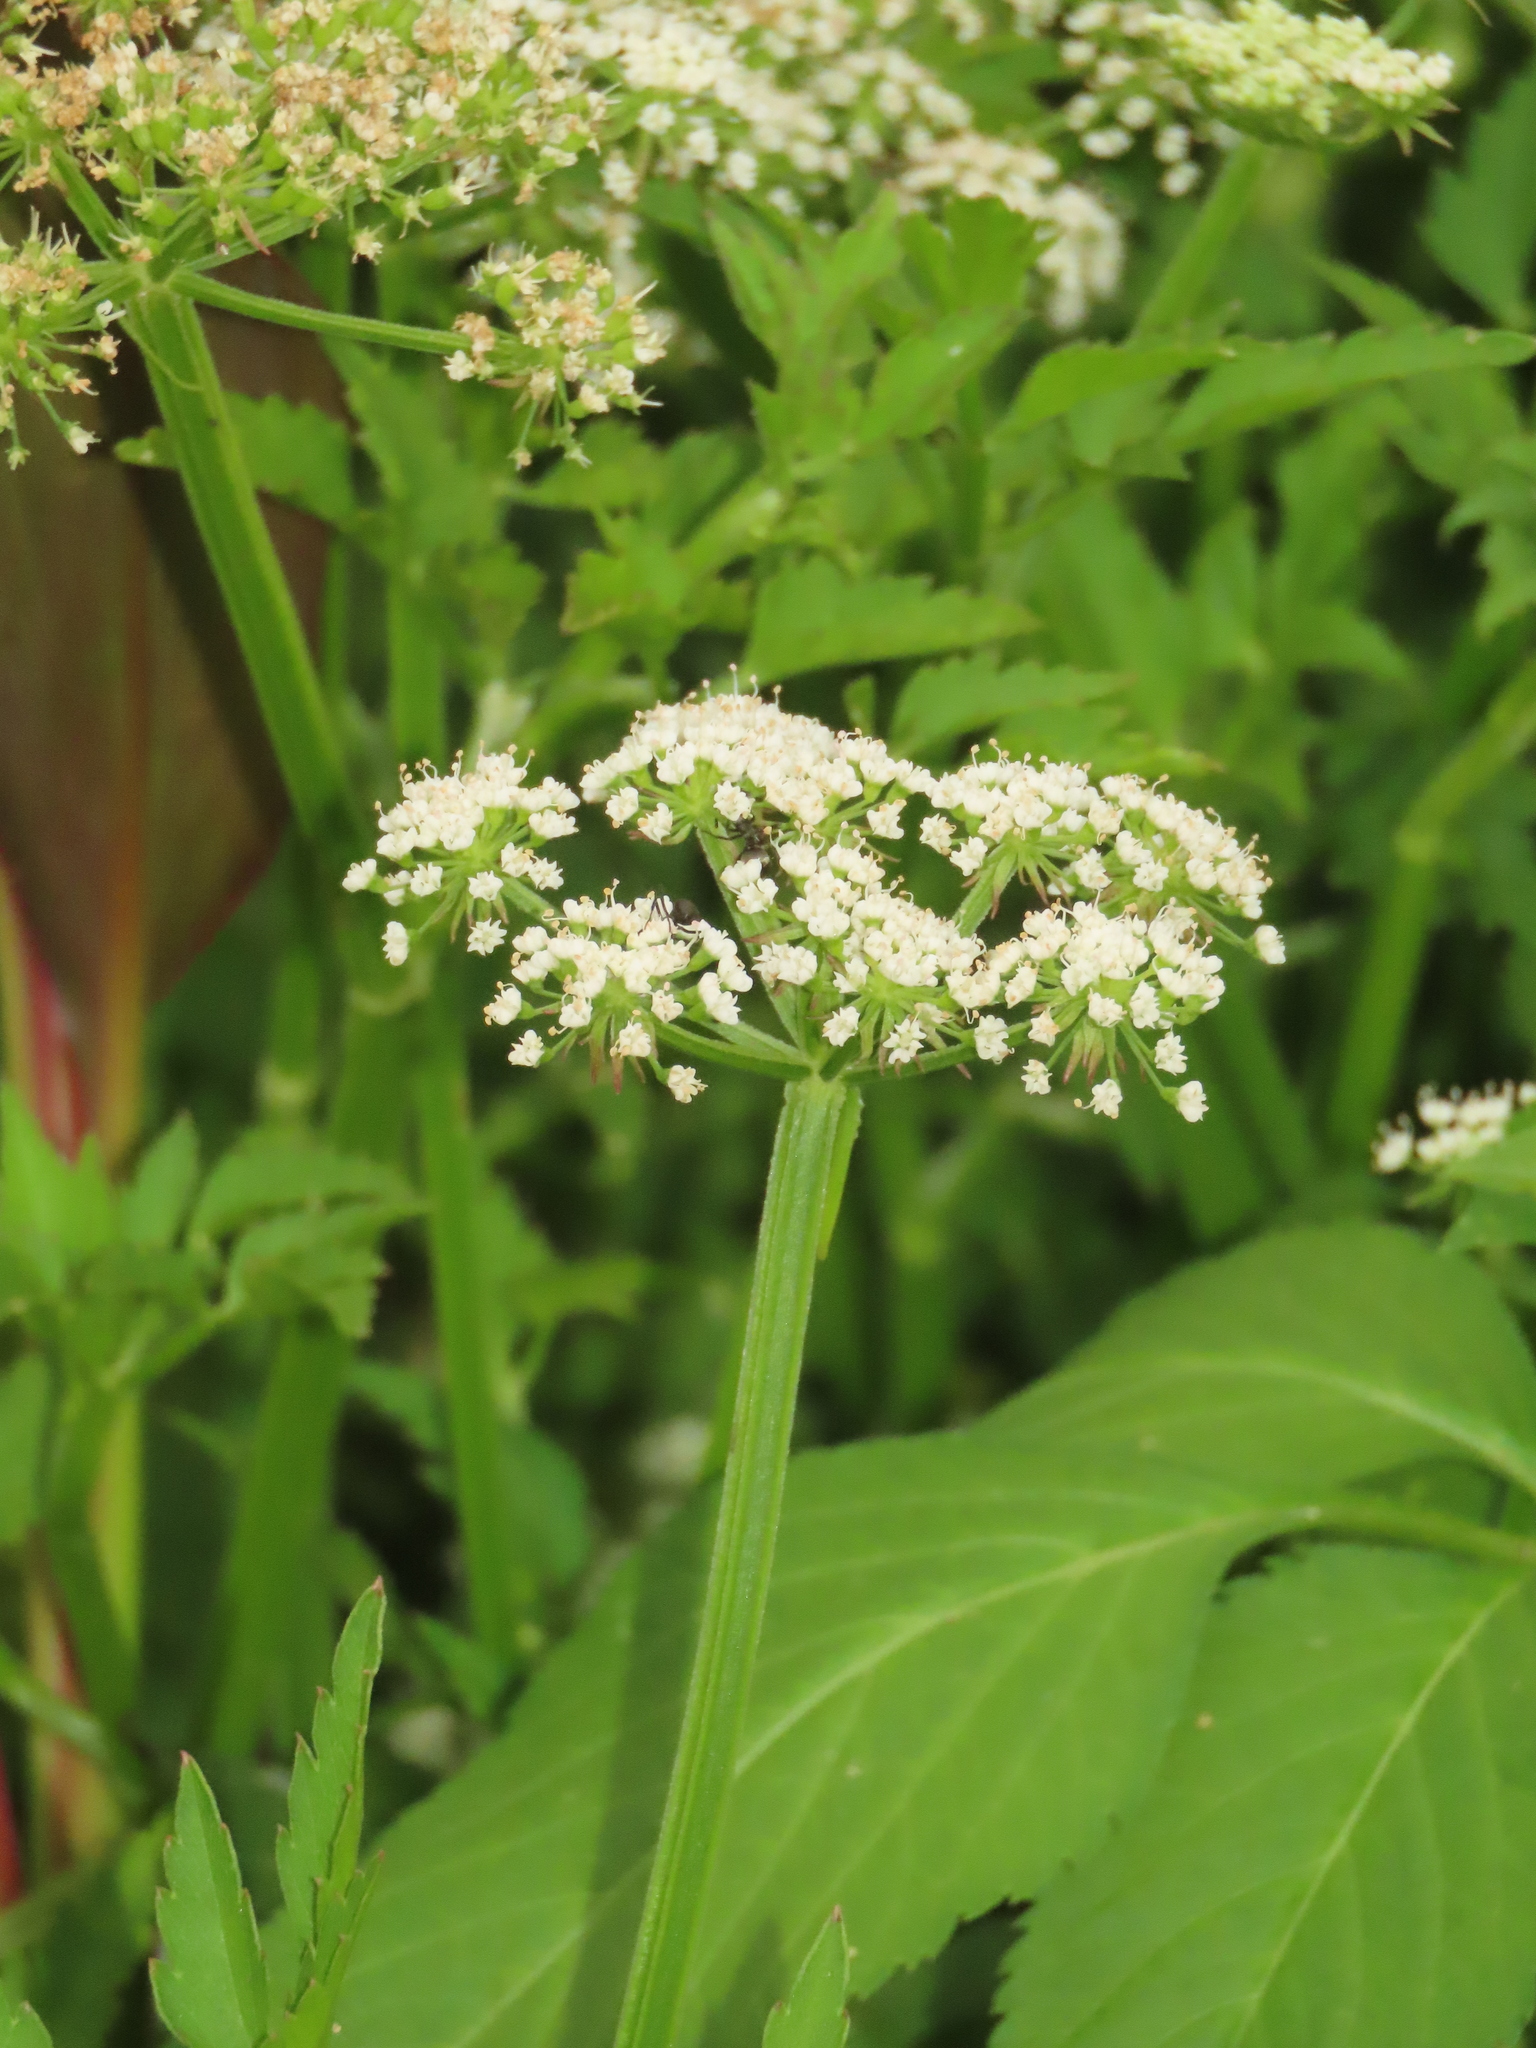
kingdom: Plantae
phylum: Tracheophyta
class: Magnoliopsida
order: Apiales
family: Apiaceae
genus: Oenanthe
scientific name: Oenanthe javanica
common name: Java water-dropwort
